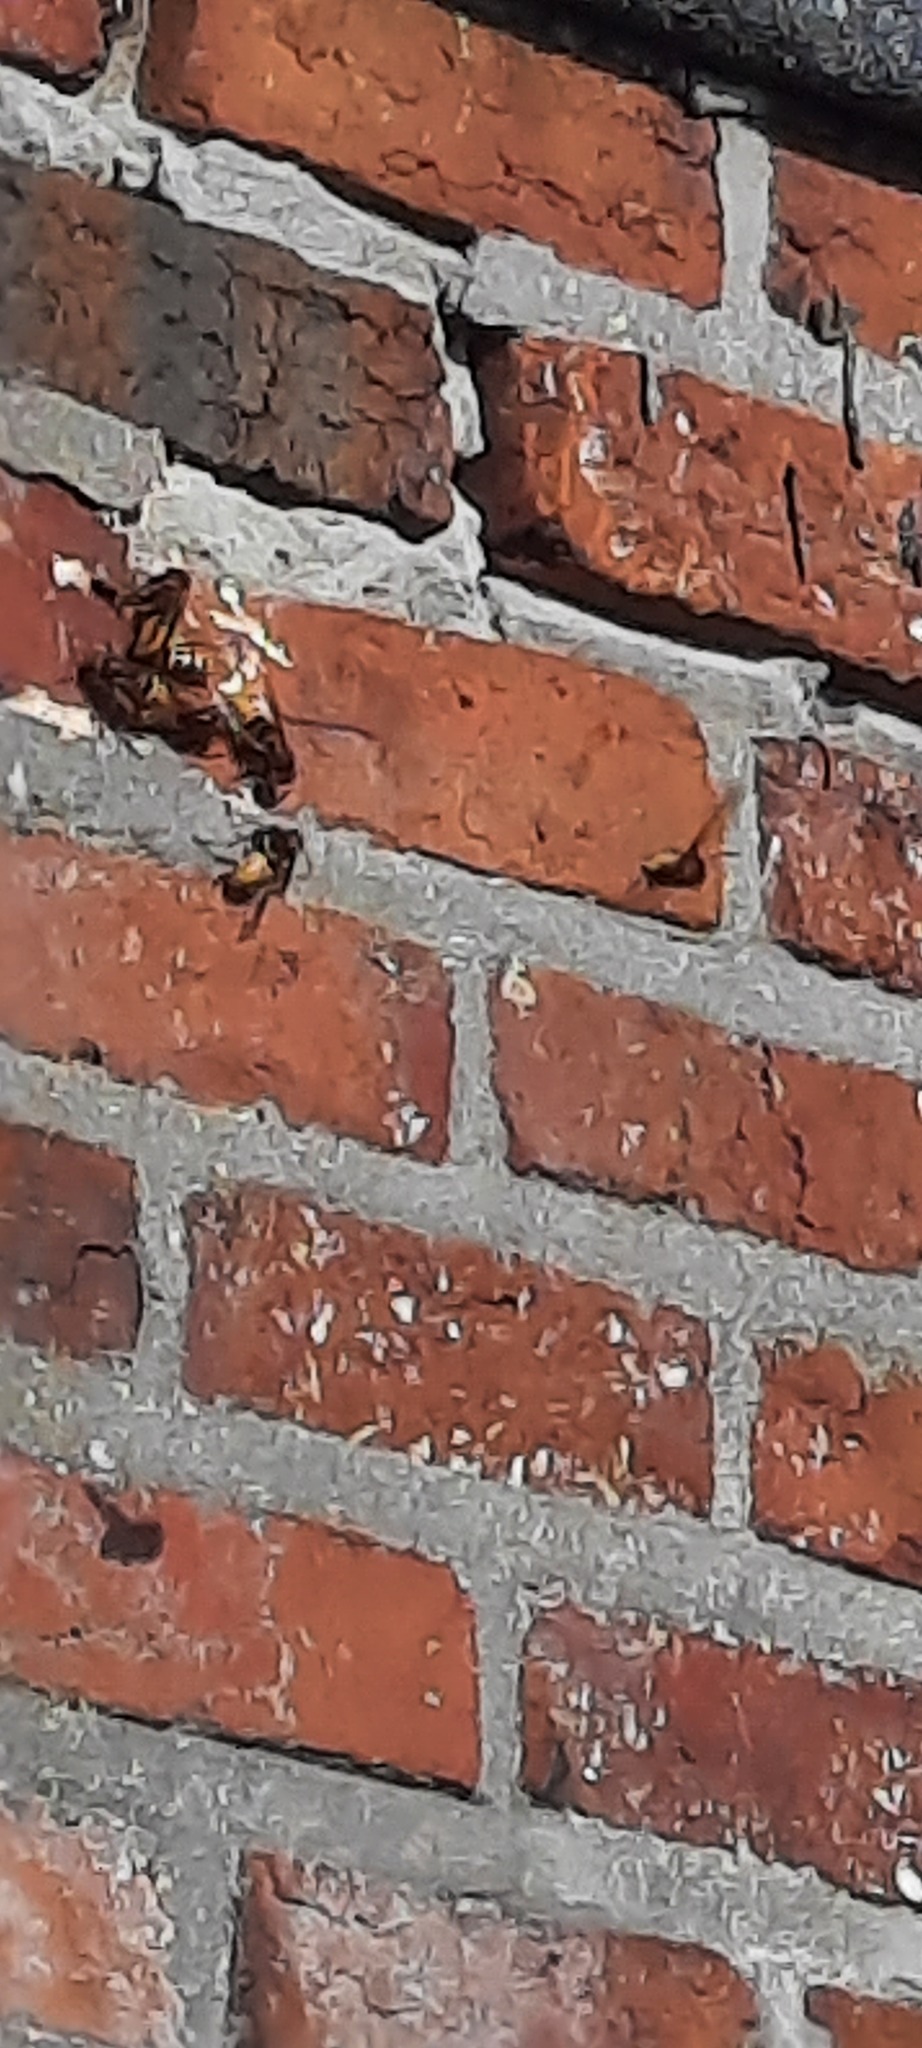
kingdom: Animalia
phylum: Arthropoda
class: Insecta
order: Hymenoptera
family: Vespidae
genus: Vespa
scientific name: Vespa crabro
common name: Hornet
